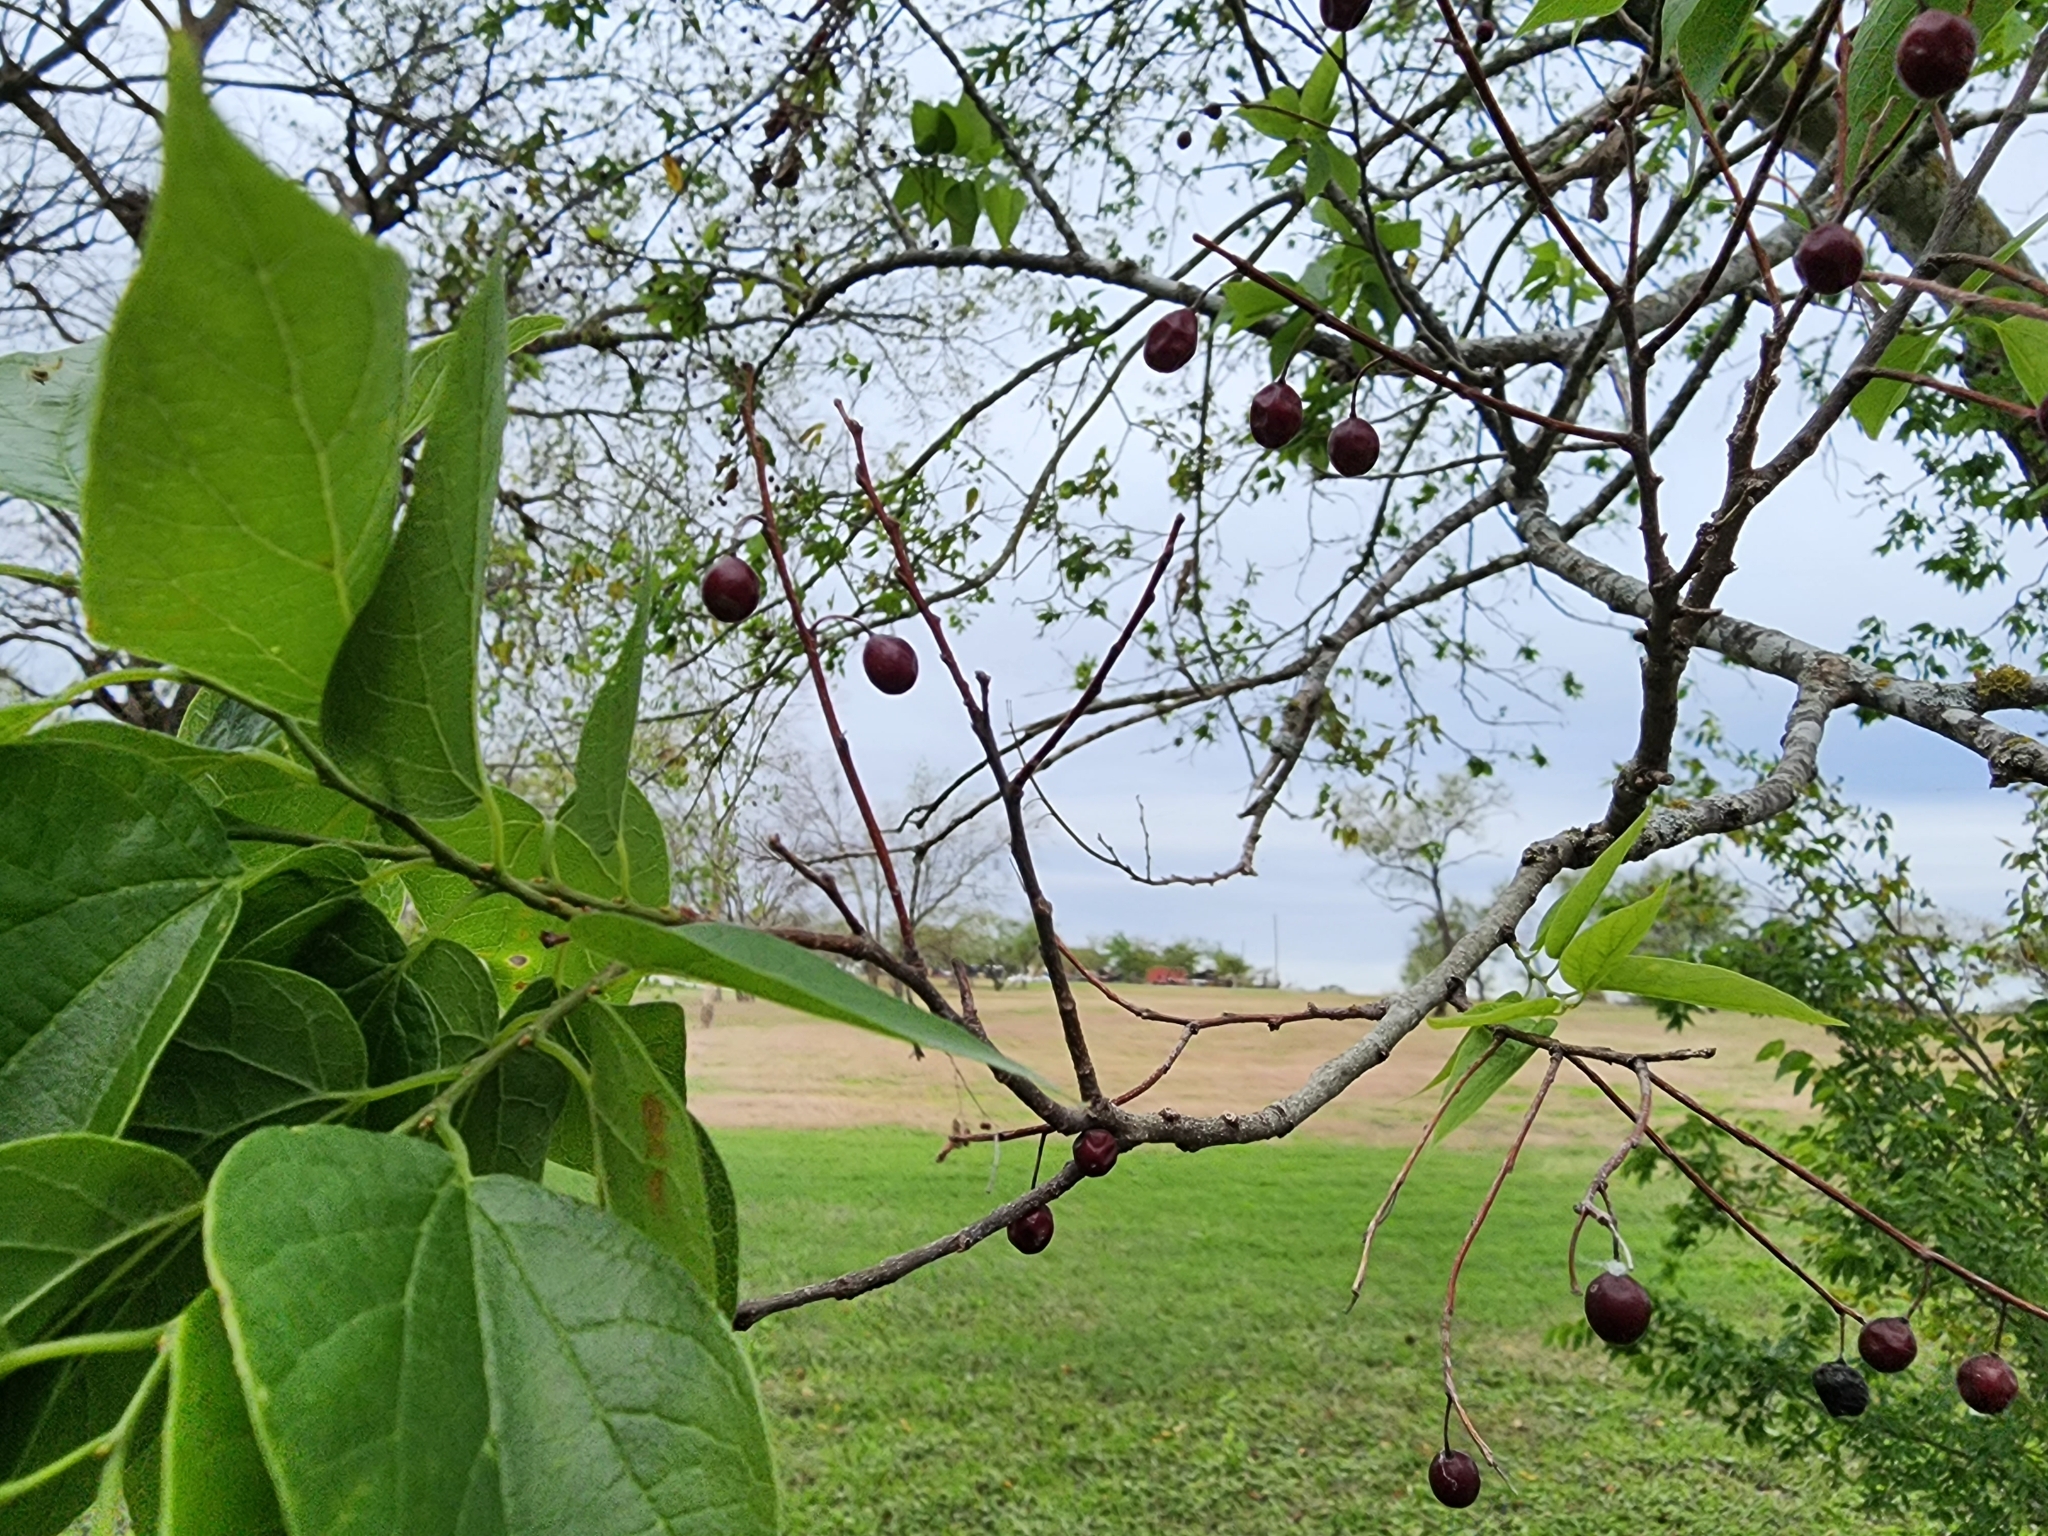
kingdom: Plantae
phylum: Tracheophyta
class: Magnoliopsida
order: Rosales
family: Cannabaceae
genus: Celtis
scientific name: Celtis laevigata
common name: Sugarberry
